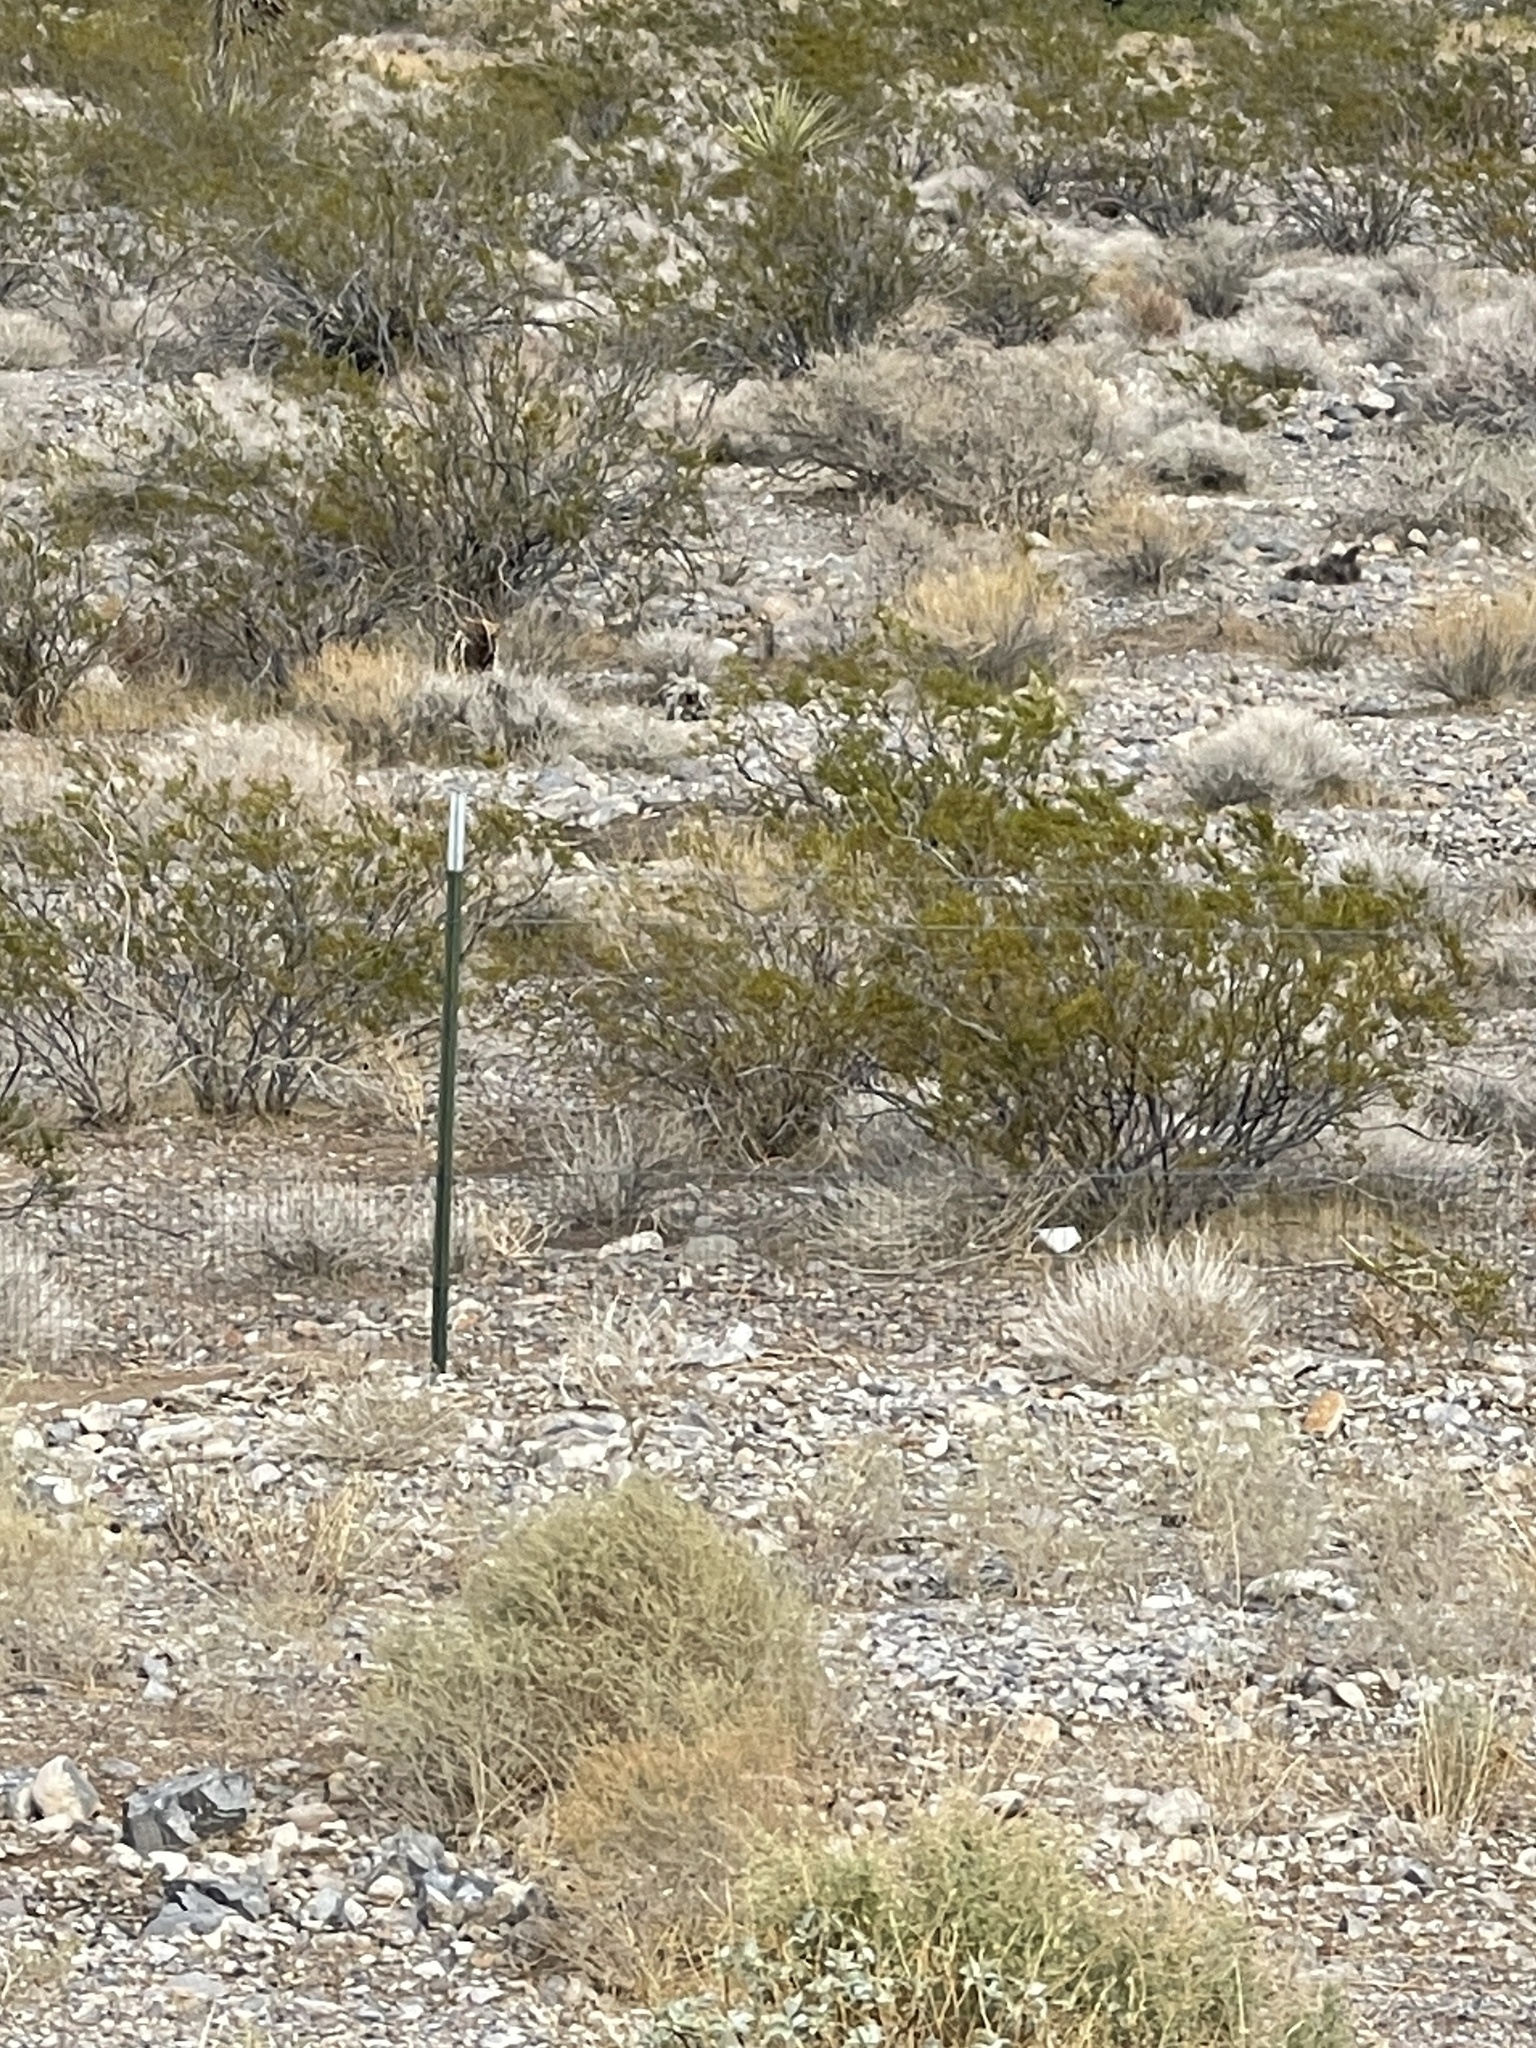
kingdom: Plantae
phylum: Tracheophyta
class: Magnoliopsida
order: Zygophyllales
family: Zygophyllaceae
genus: Larrea
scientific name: Larrea tridentata
